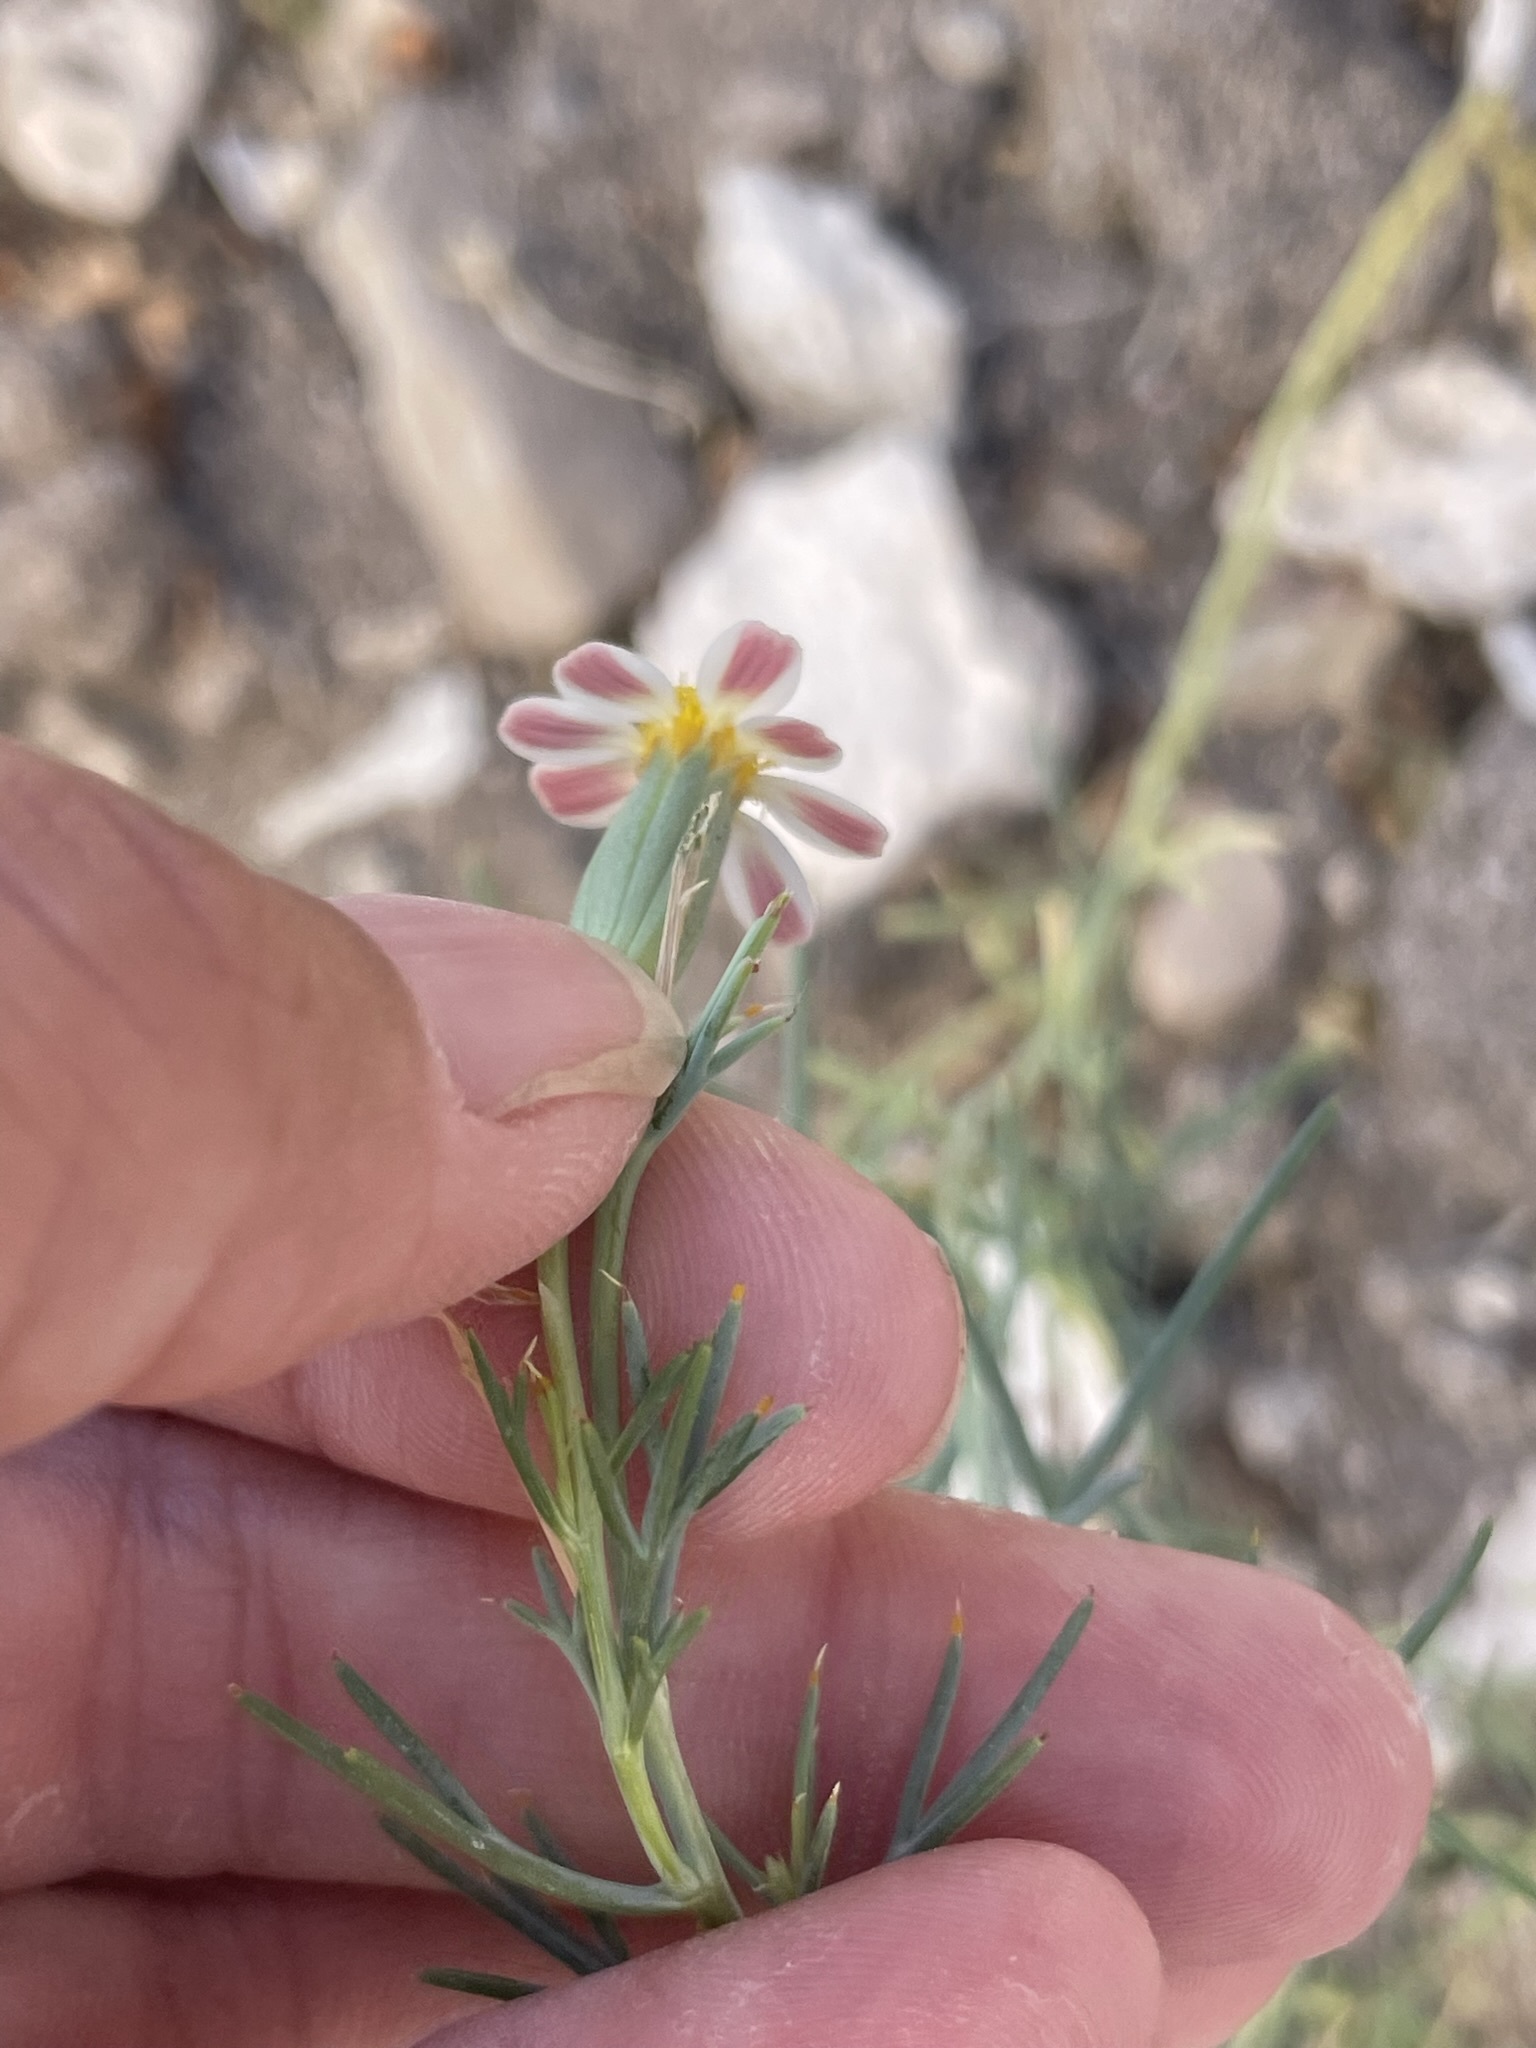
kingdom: Plantae
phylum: Tracheophyta
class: Magnoliopsida
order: Asterales
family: Asteraceae
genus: Nicolletia
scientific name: Nicolletia trifida
